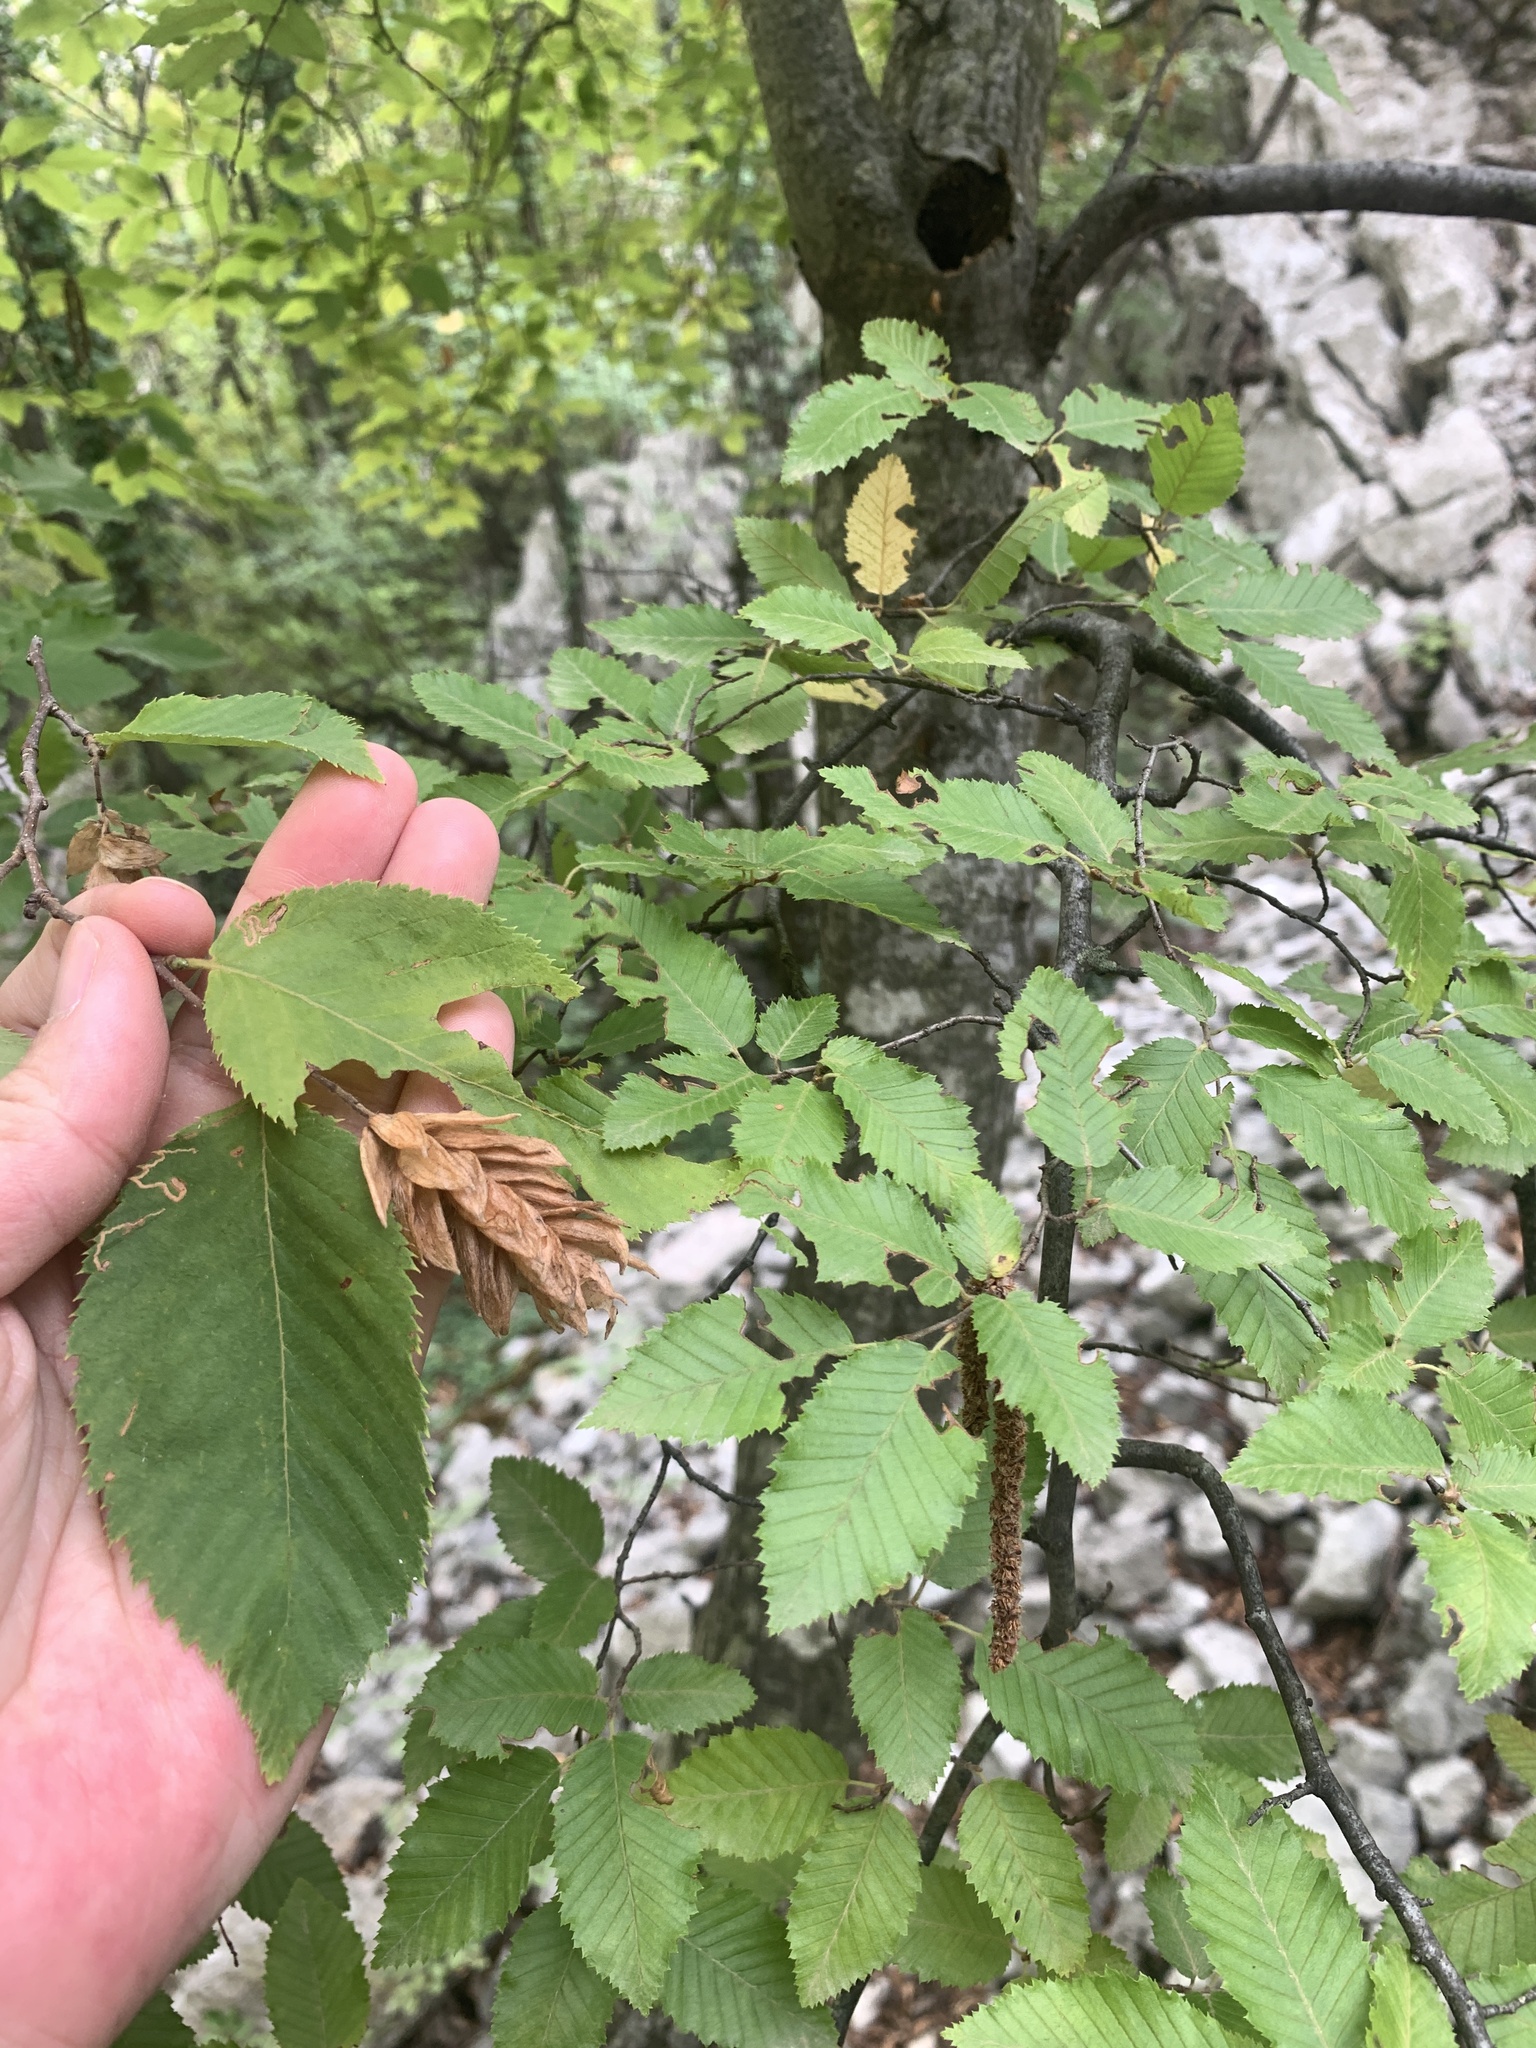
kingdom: Plantae
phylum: Tracheophyta
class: Magnoliopsida
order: Fagales
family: Betulaceae
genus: Ostrya
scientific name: Ostrya carpinifolia
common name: European hop-hornbeam
